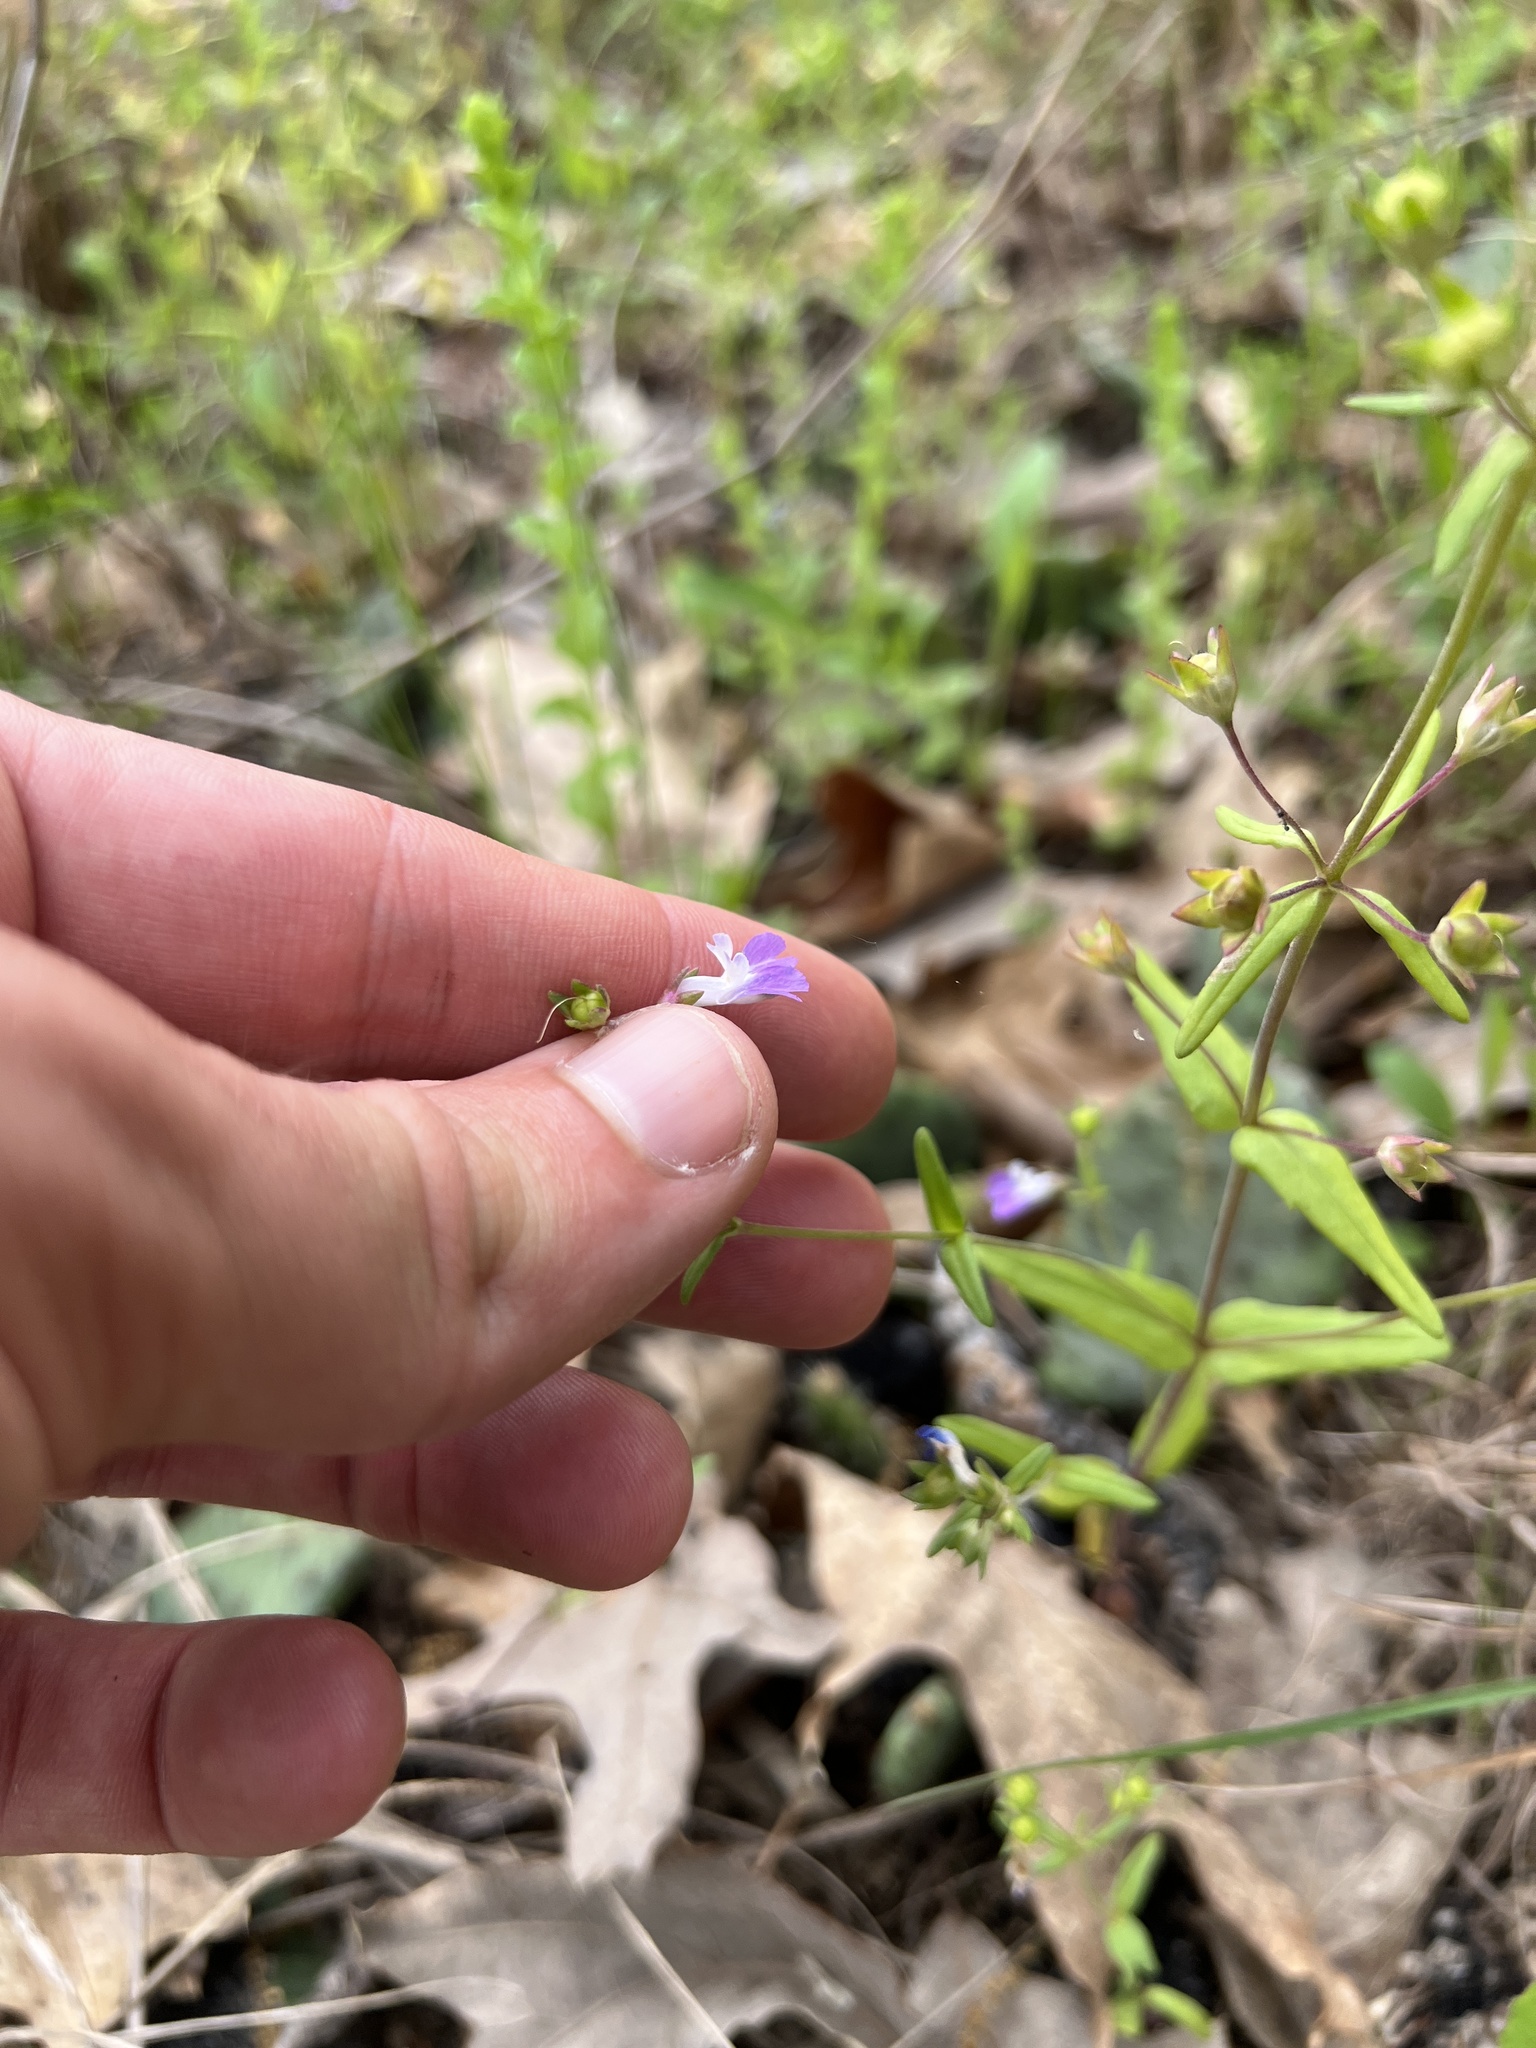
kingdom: Plantae
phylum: Tracheophyta
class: Magnoliopsida
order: Lamiales
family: Plantaginaceae
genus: Collinsia
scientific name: Collinsia violacea
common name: Violet collinsia
